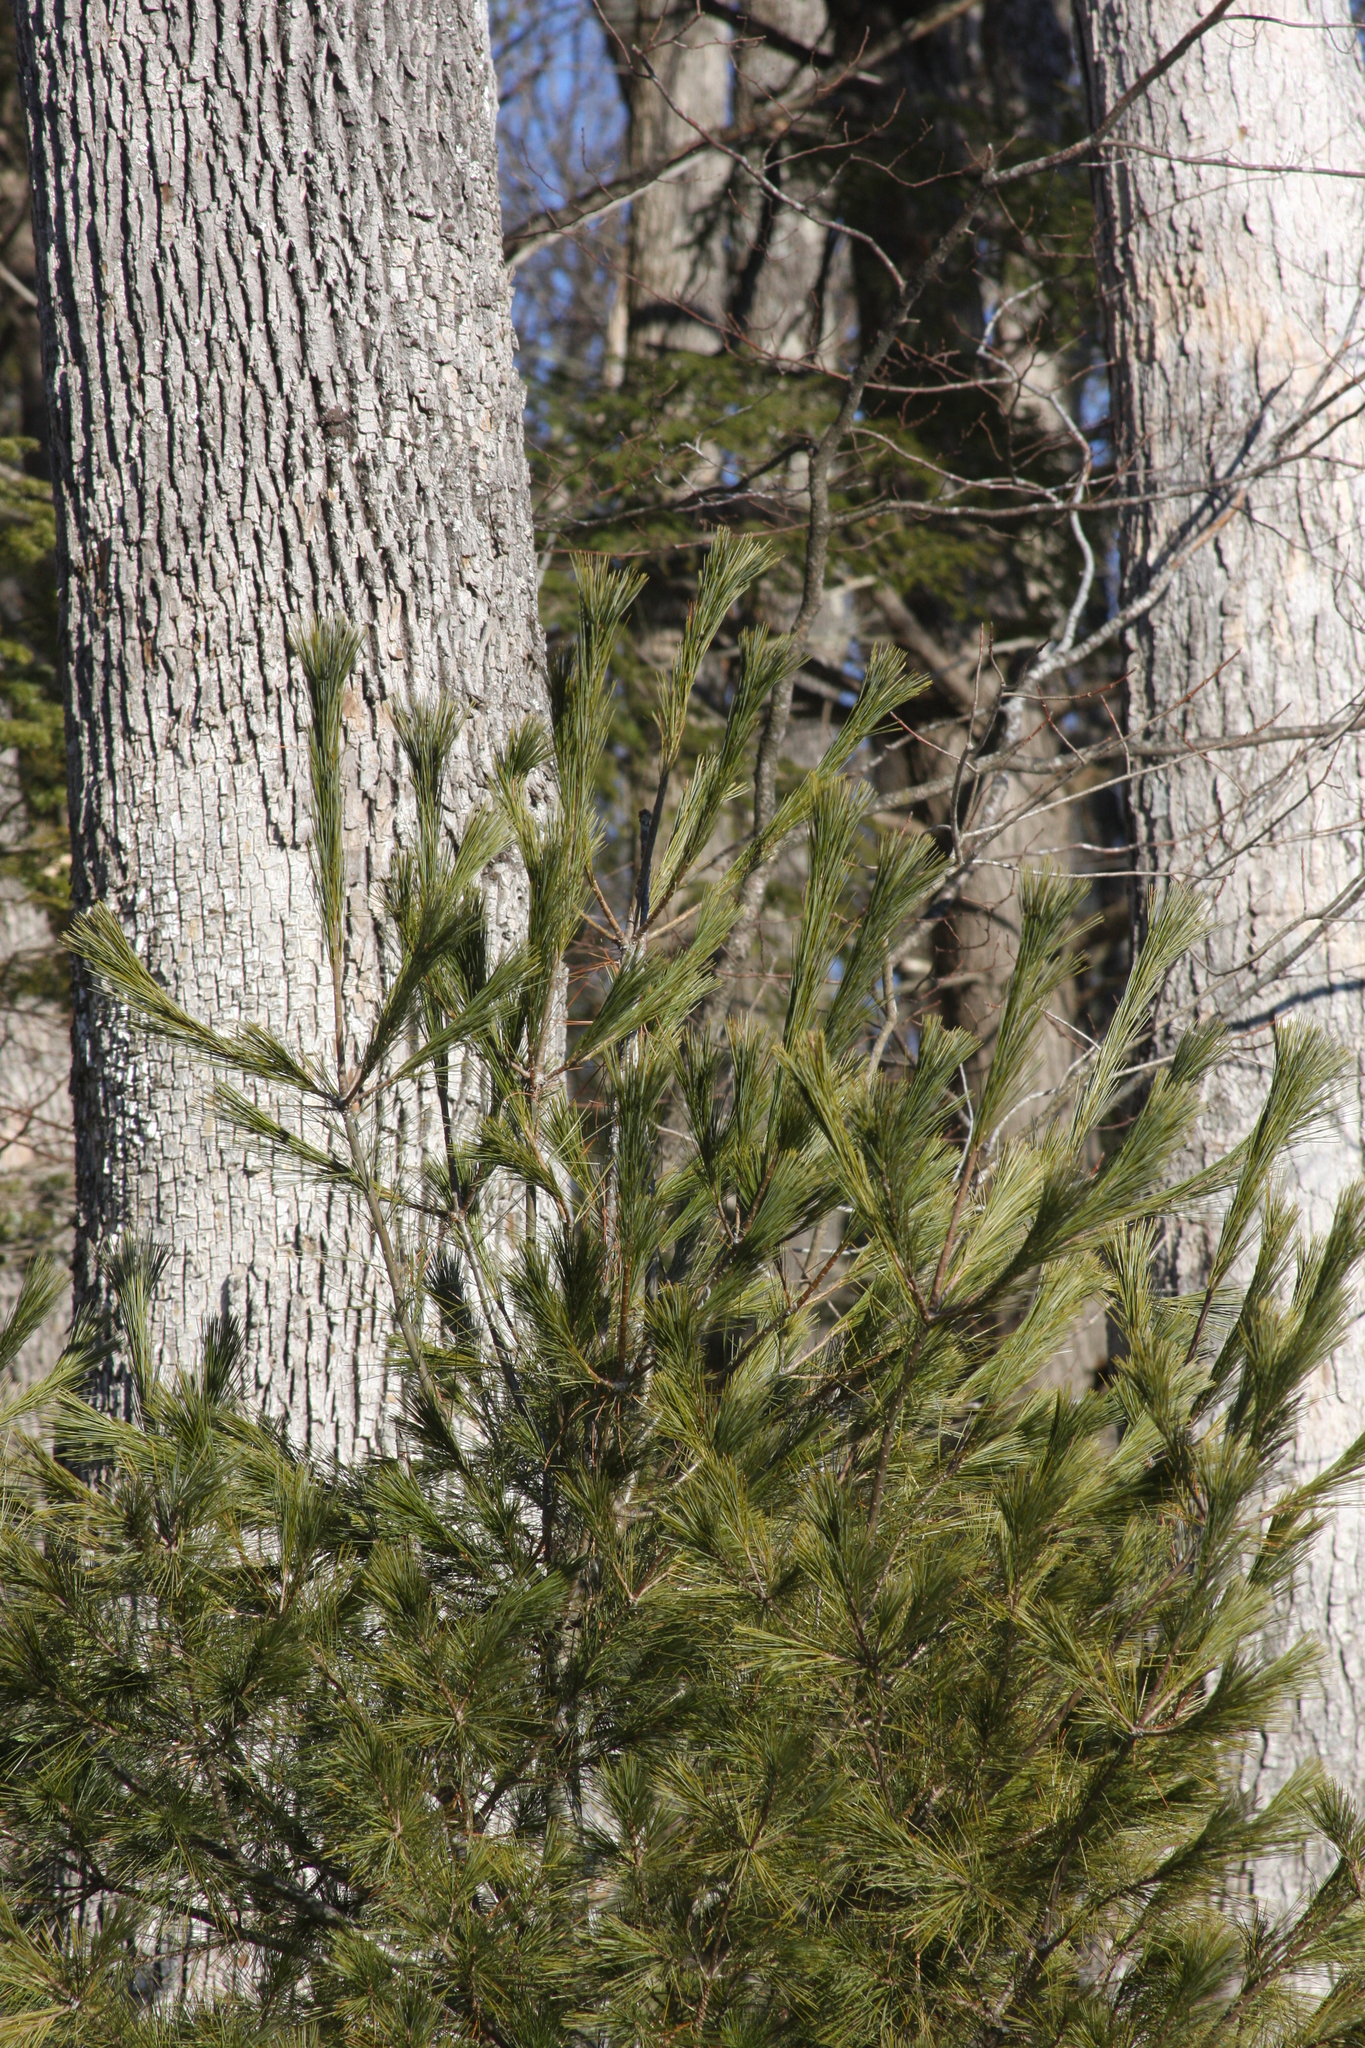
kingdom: Plantae
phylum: Tracheophyta
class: Pinopsida
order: Pinales
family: Pinaceae
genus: Pinus
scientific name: Pinus strobus
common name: Weymouth pine
